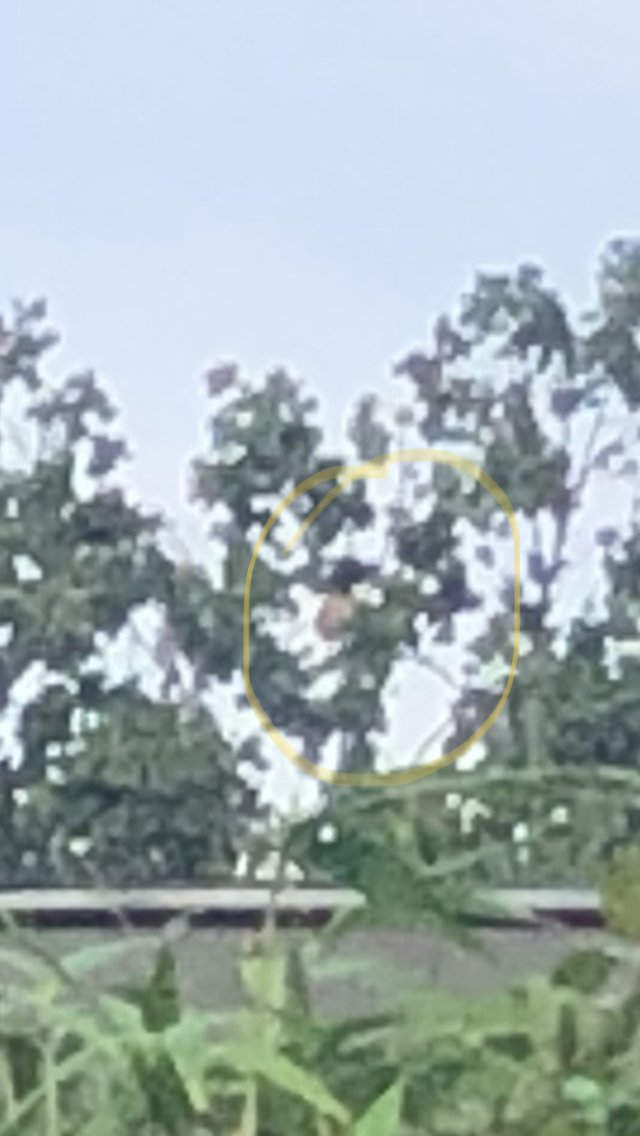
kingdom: Animalia
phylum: Arthropoda
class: Insecta
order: Hymenoptera
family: Vespidae
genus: Vespa
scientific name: Vespa velutina
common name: Asian hornet
